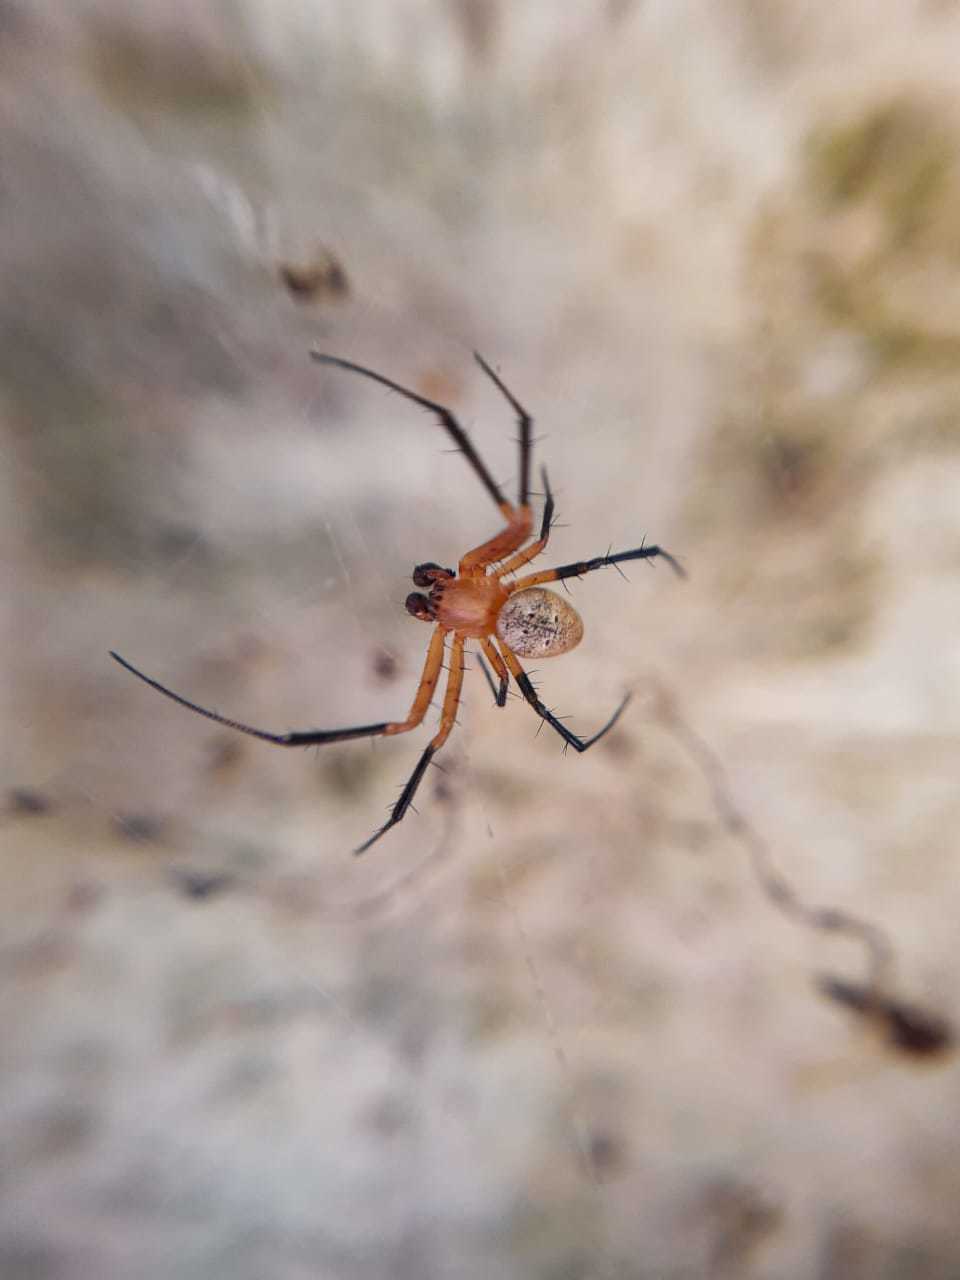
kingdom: Animalia
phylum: Arthropoda
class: Arachnida
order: Araneae
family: Araneidae
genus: Nephilingis
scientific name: Nephilingis cruentata
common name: African hermit spider
